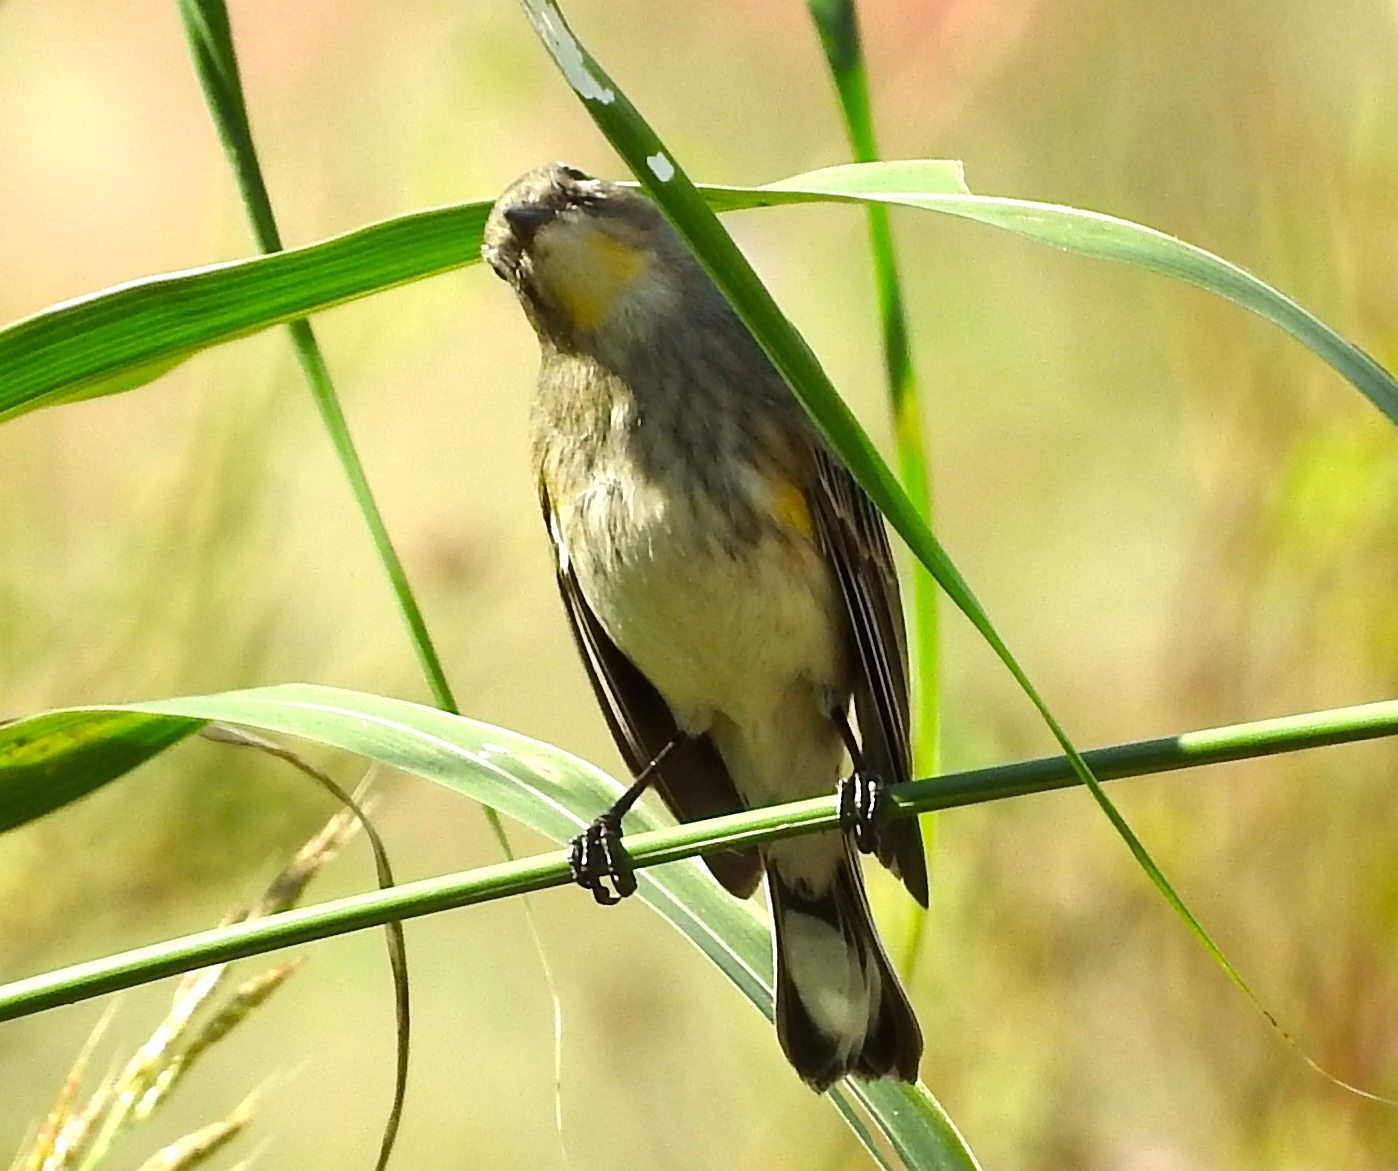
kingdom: Animalia
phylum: Chordata
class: Aves
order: Passeriformes
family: Parulidae
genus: Setophaga
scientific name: Setophaga coronata
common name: Myrtle warbler
